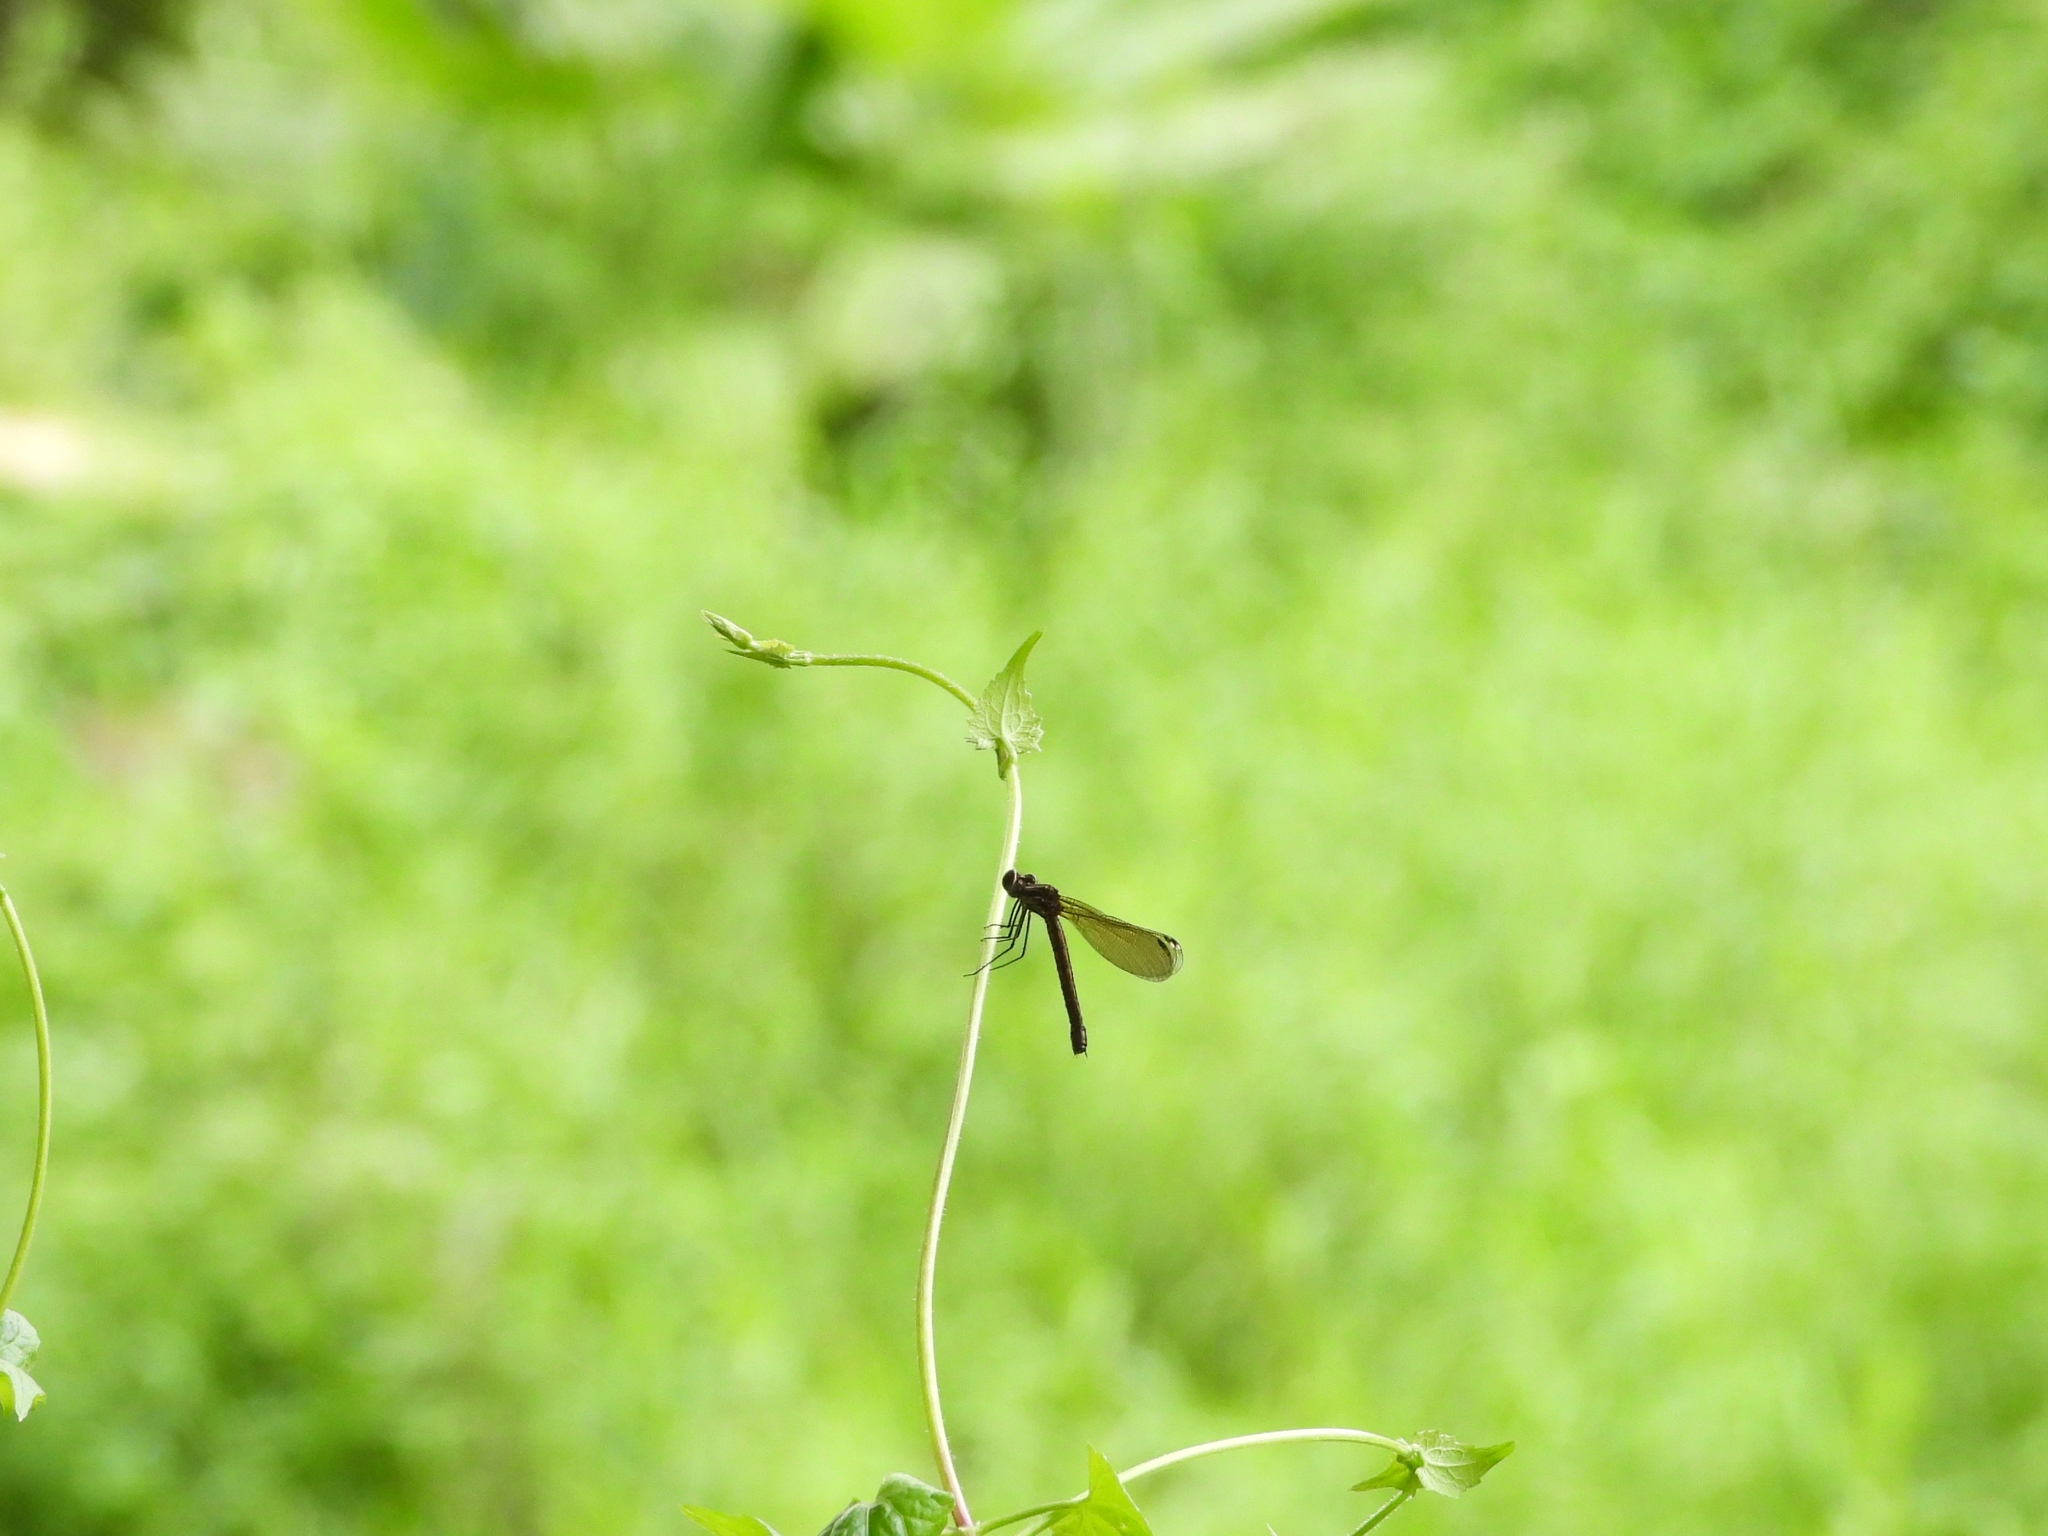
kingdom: Animalia
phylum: Arthropoda
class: Insecta
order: Odonata
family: Euphaeidae
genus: Euphaea
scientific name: Euphaea decorata
